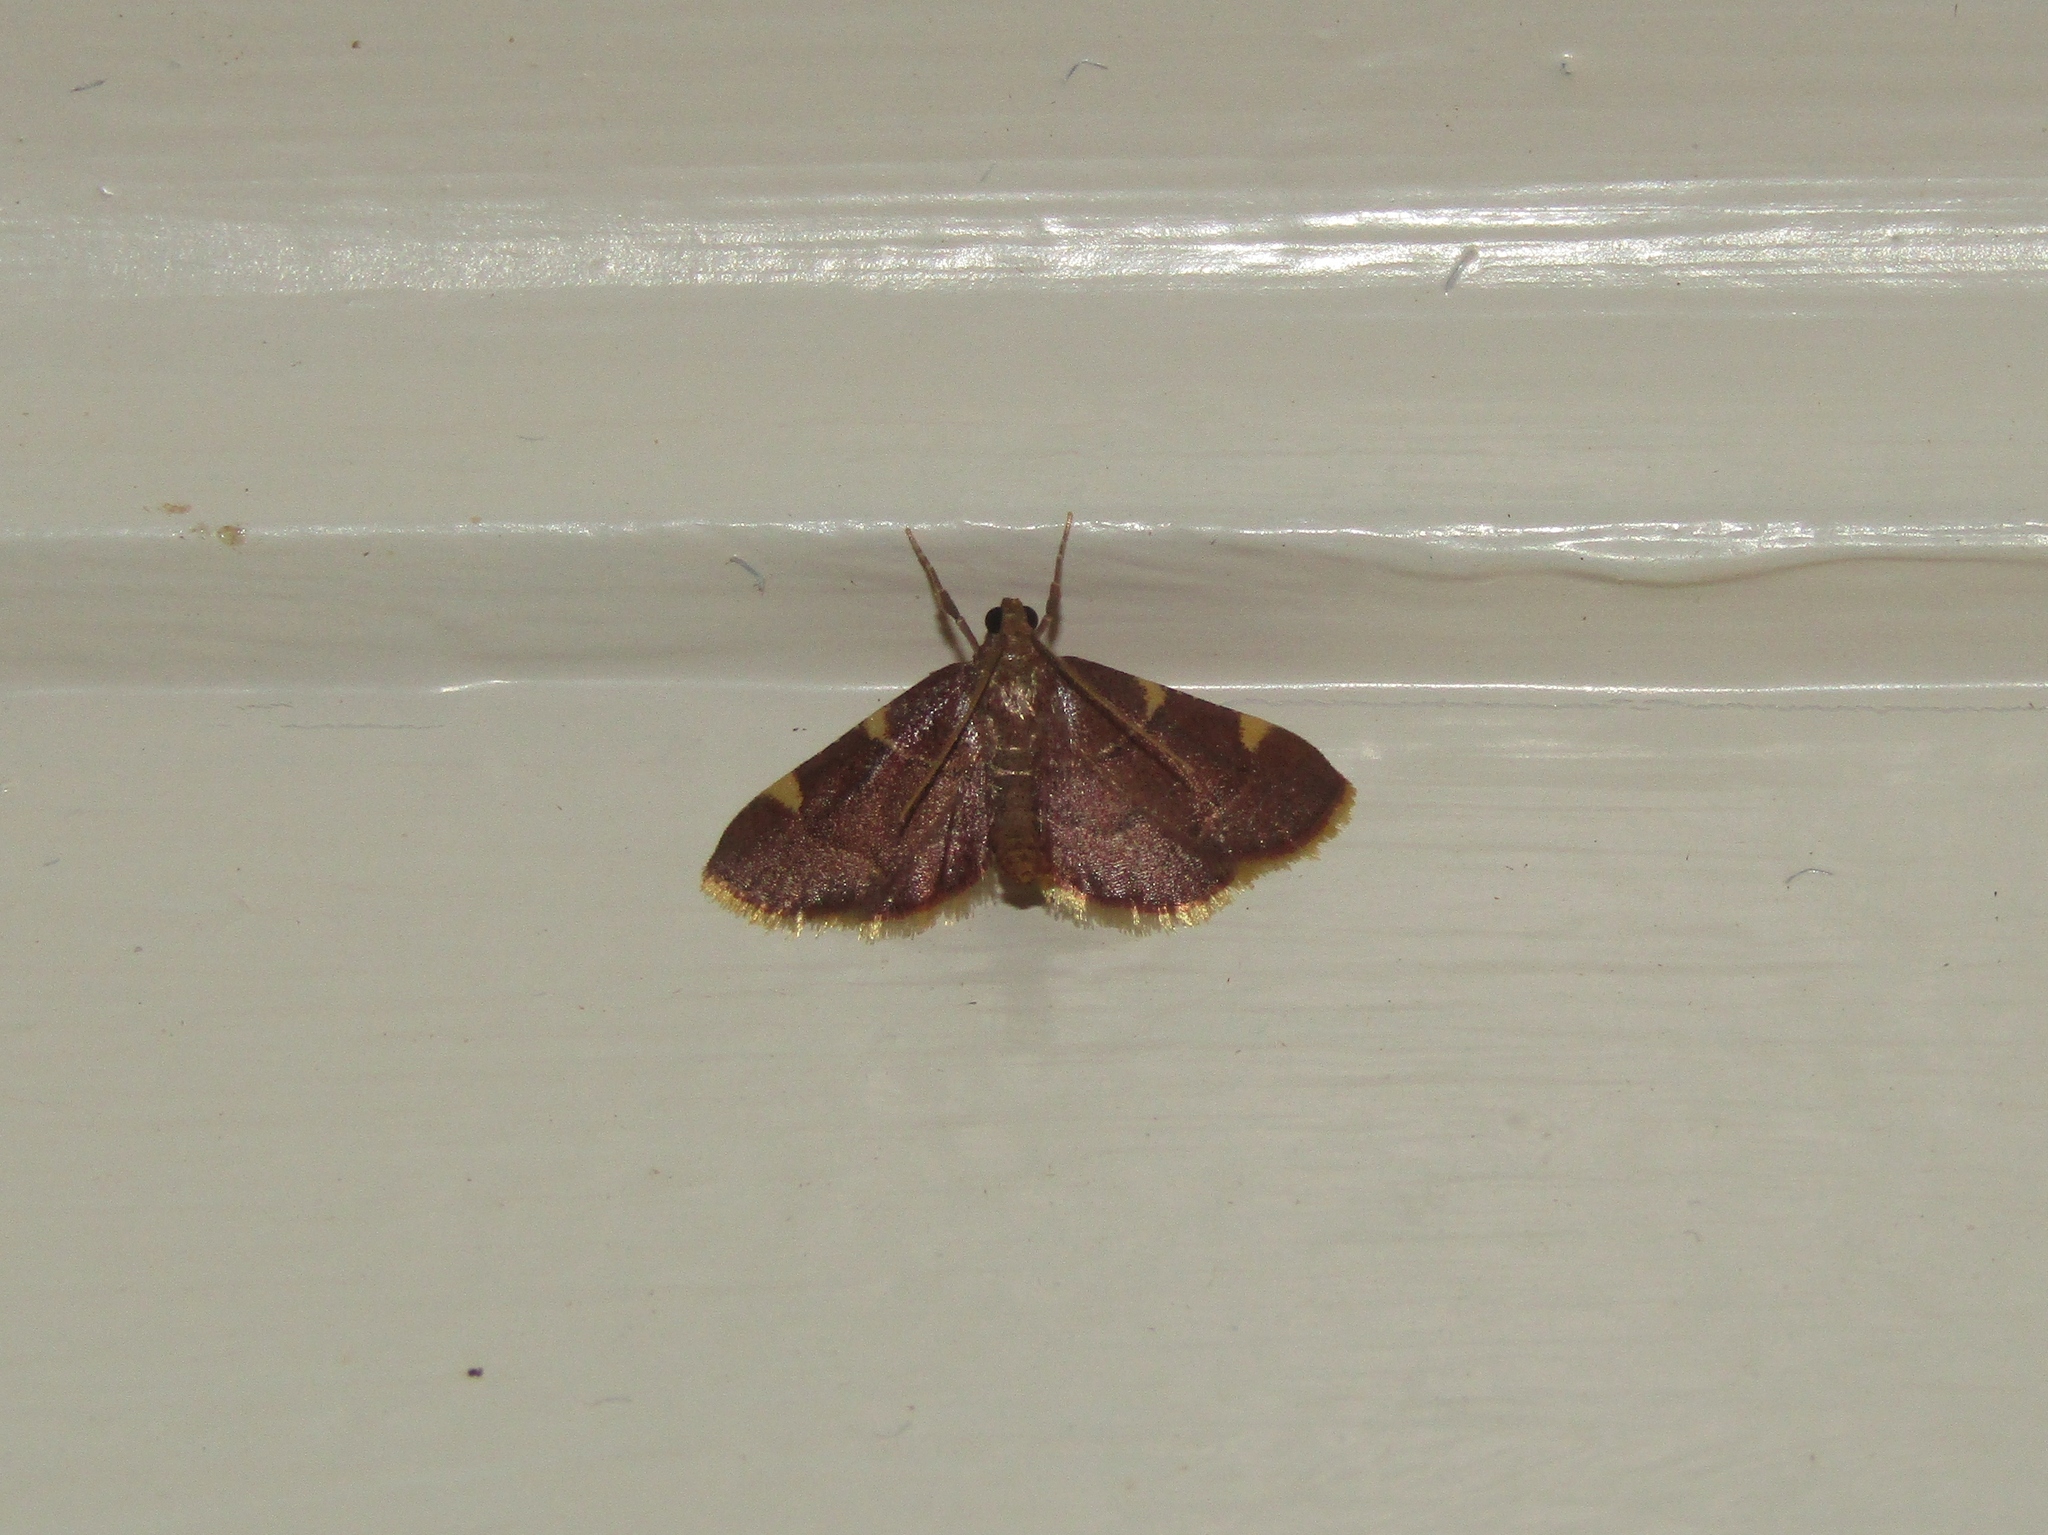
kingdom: Animalia
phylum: Arthropoda
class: Insecta
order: Lepidoptera
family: Pyralidae
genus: Hypsopygia
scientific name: Hypsopygia olinalis
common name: Yellow-fringed dolichomia moth
